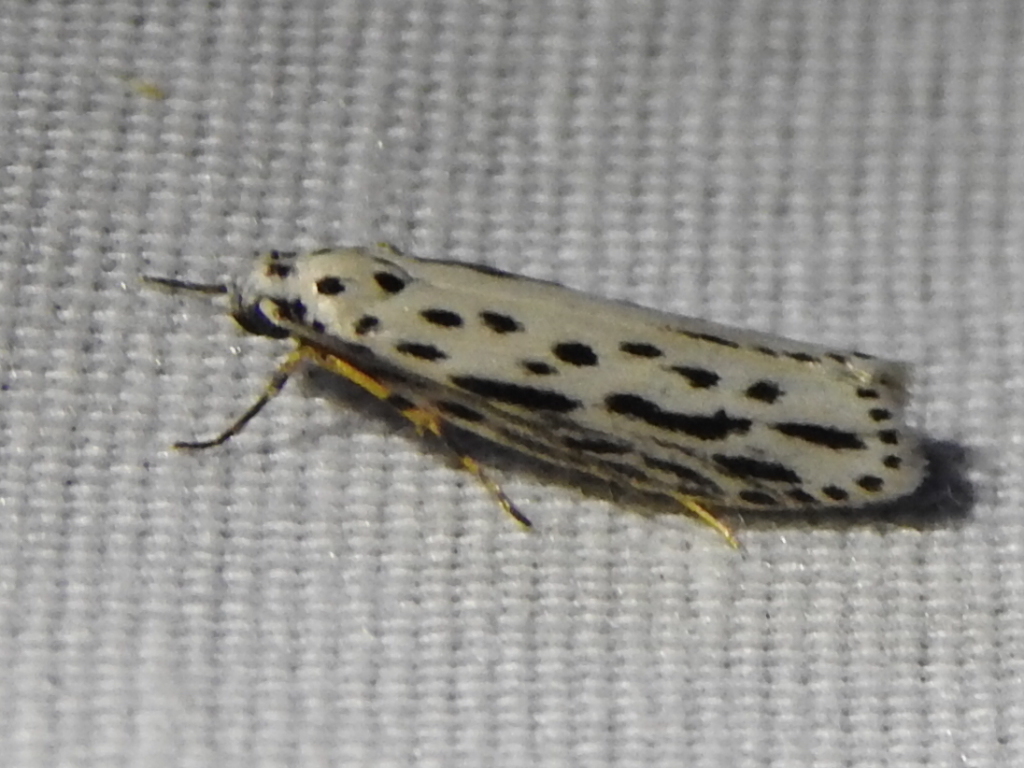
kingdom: Animalia
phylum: Arthropoda
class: Insecta
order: Lepidoptera
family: Ethmiidae
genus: Ethmia
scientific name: Ethmia zelleriella
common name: Zeller's ethmia
